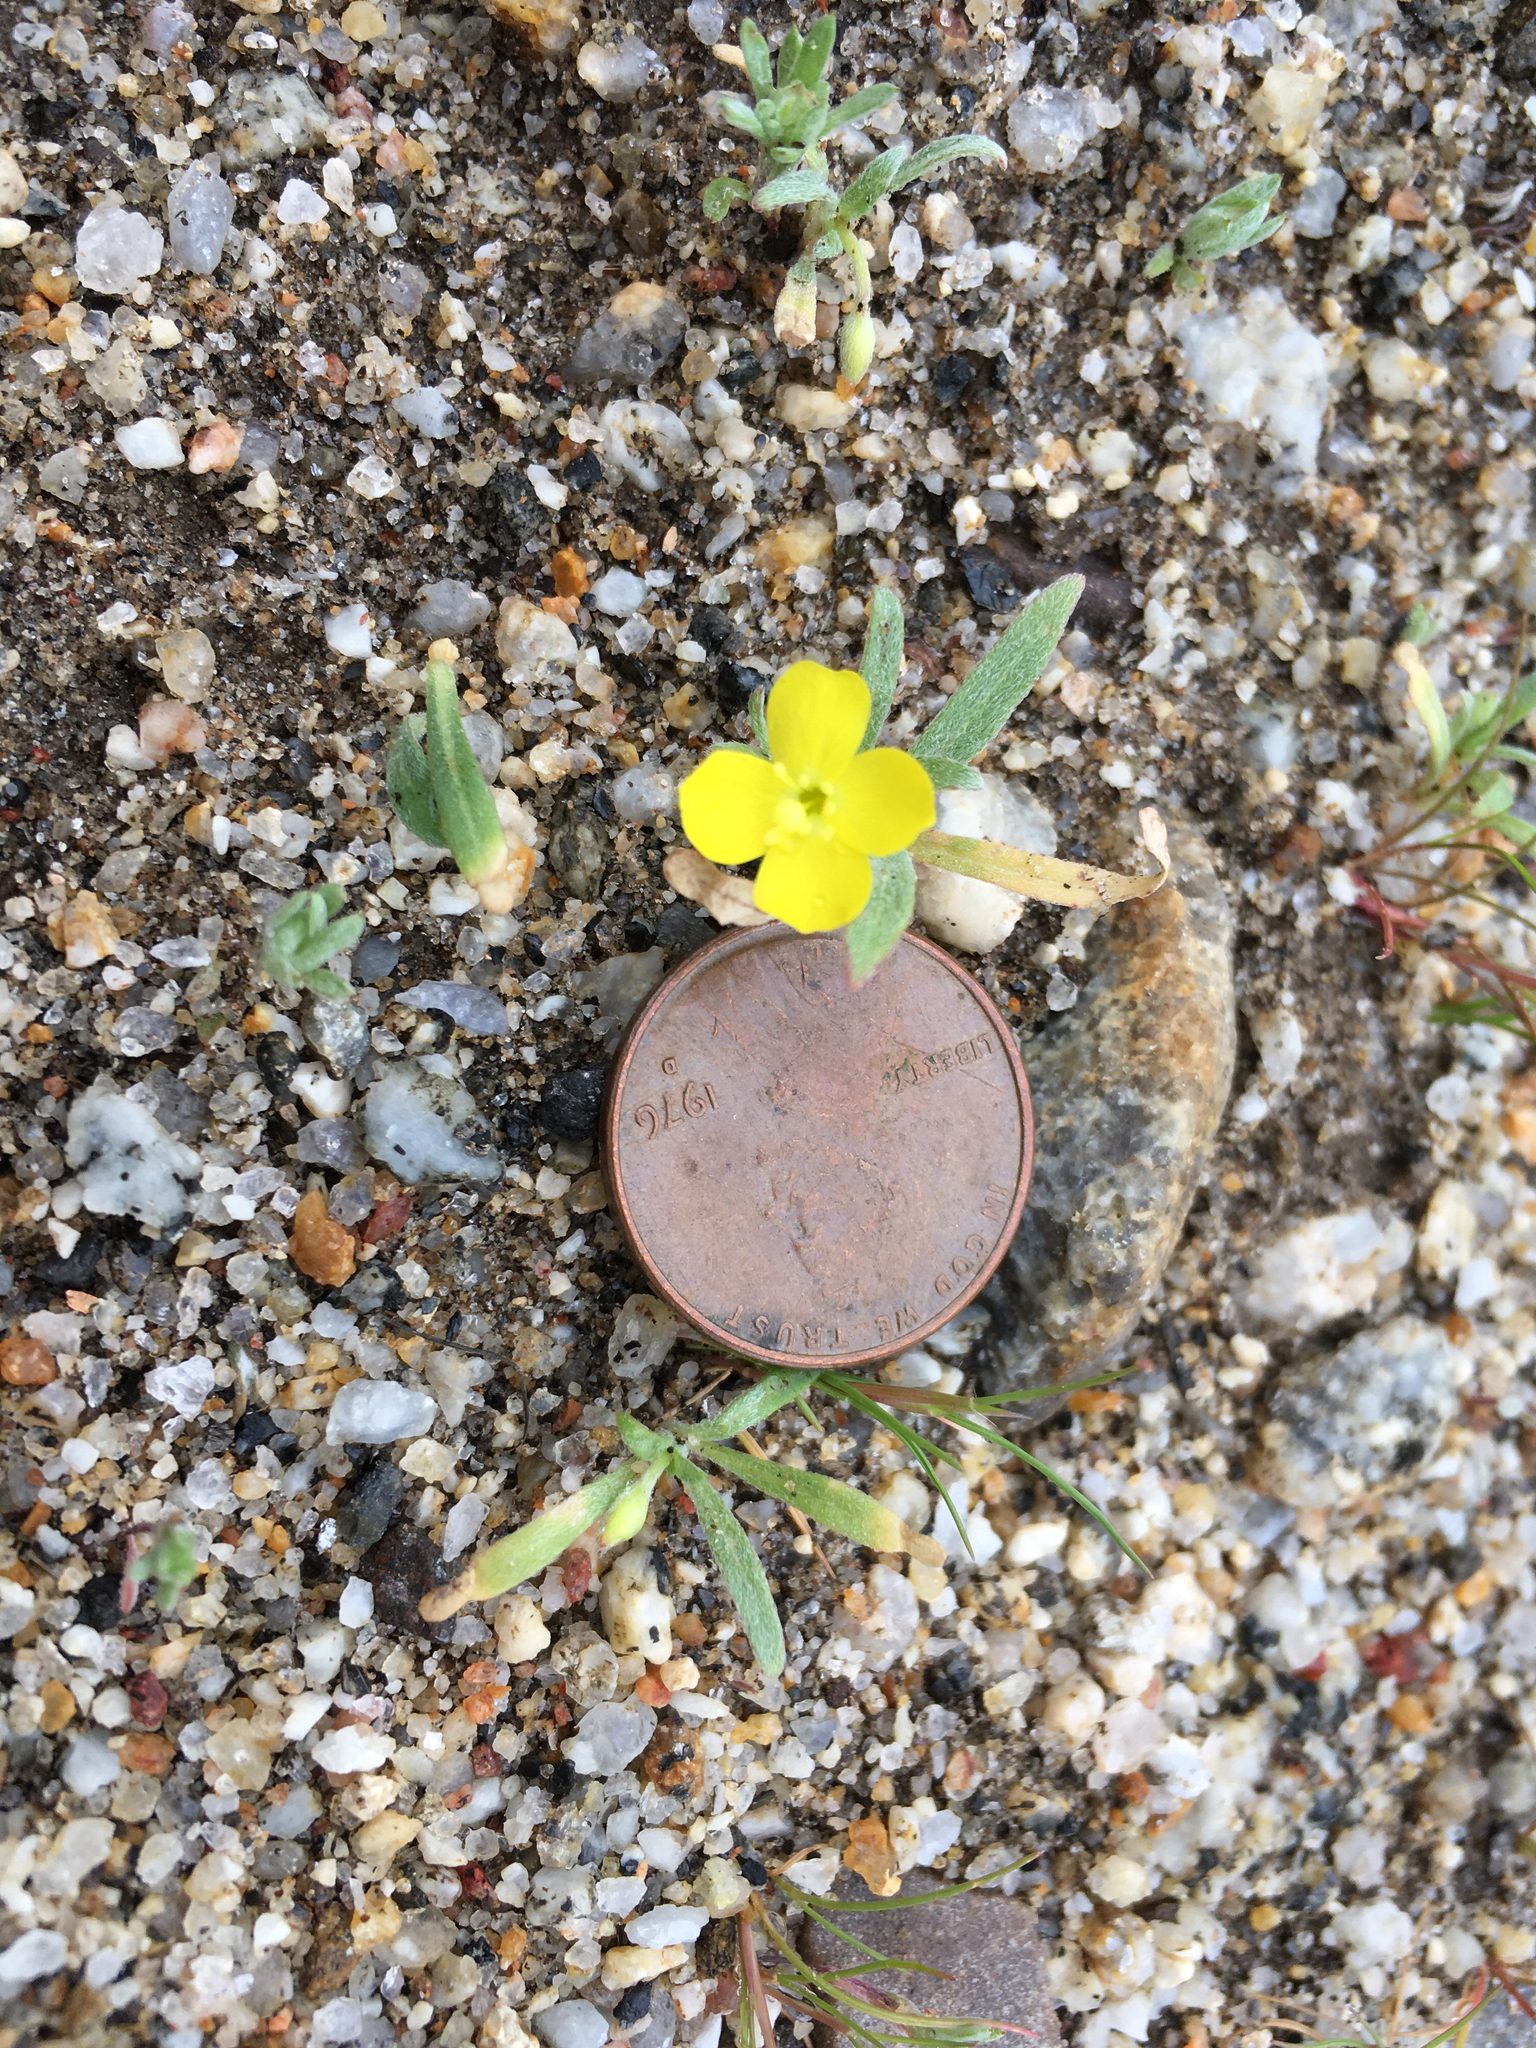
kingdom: Plantae
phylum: Tracheophyta
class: Magnoliopsida
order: Myrtales
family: Onagraceae
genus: Camissoniopsis
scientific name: Camissoniopsis pallida
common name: Paleyellow suncup
